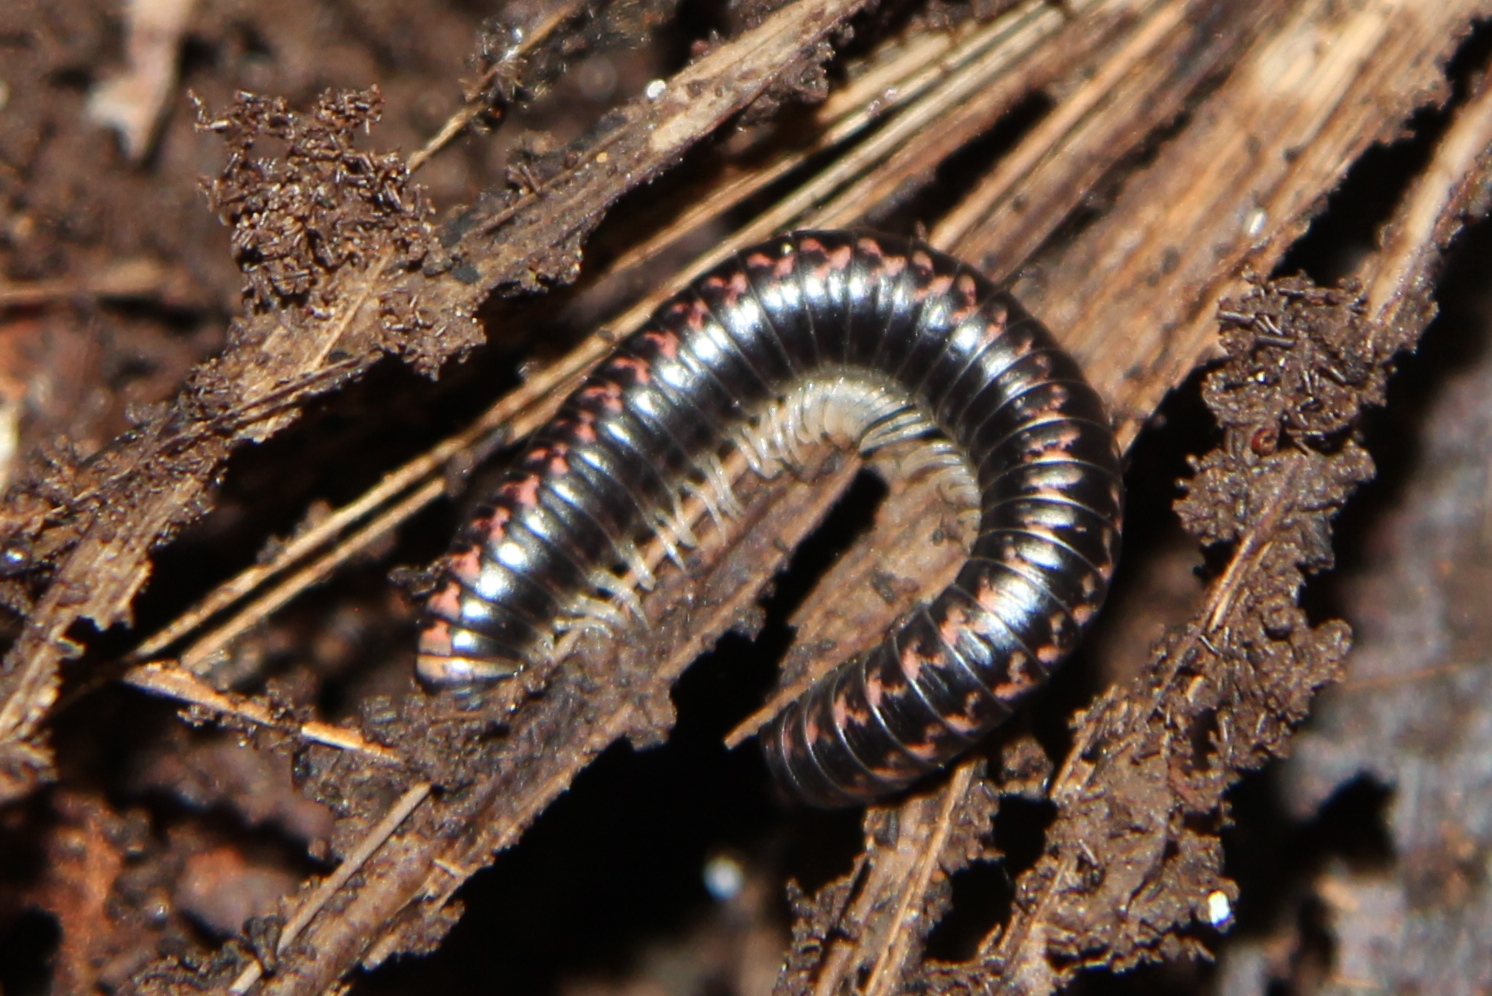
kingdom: Animalia
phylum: Arthropoda
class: Diplopoda
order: Spirobolida
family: Spirobolellidae
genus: Spirobolellus
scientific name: Spirobolellus antipodarum
